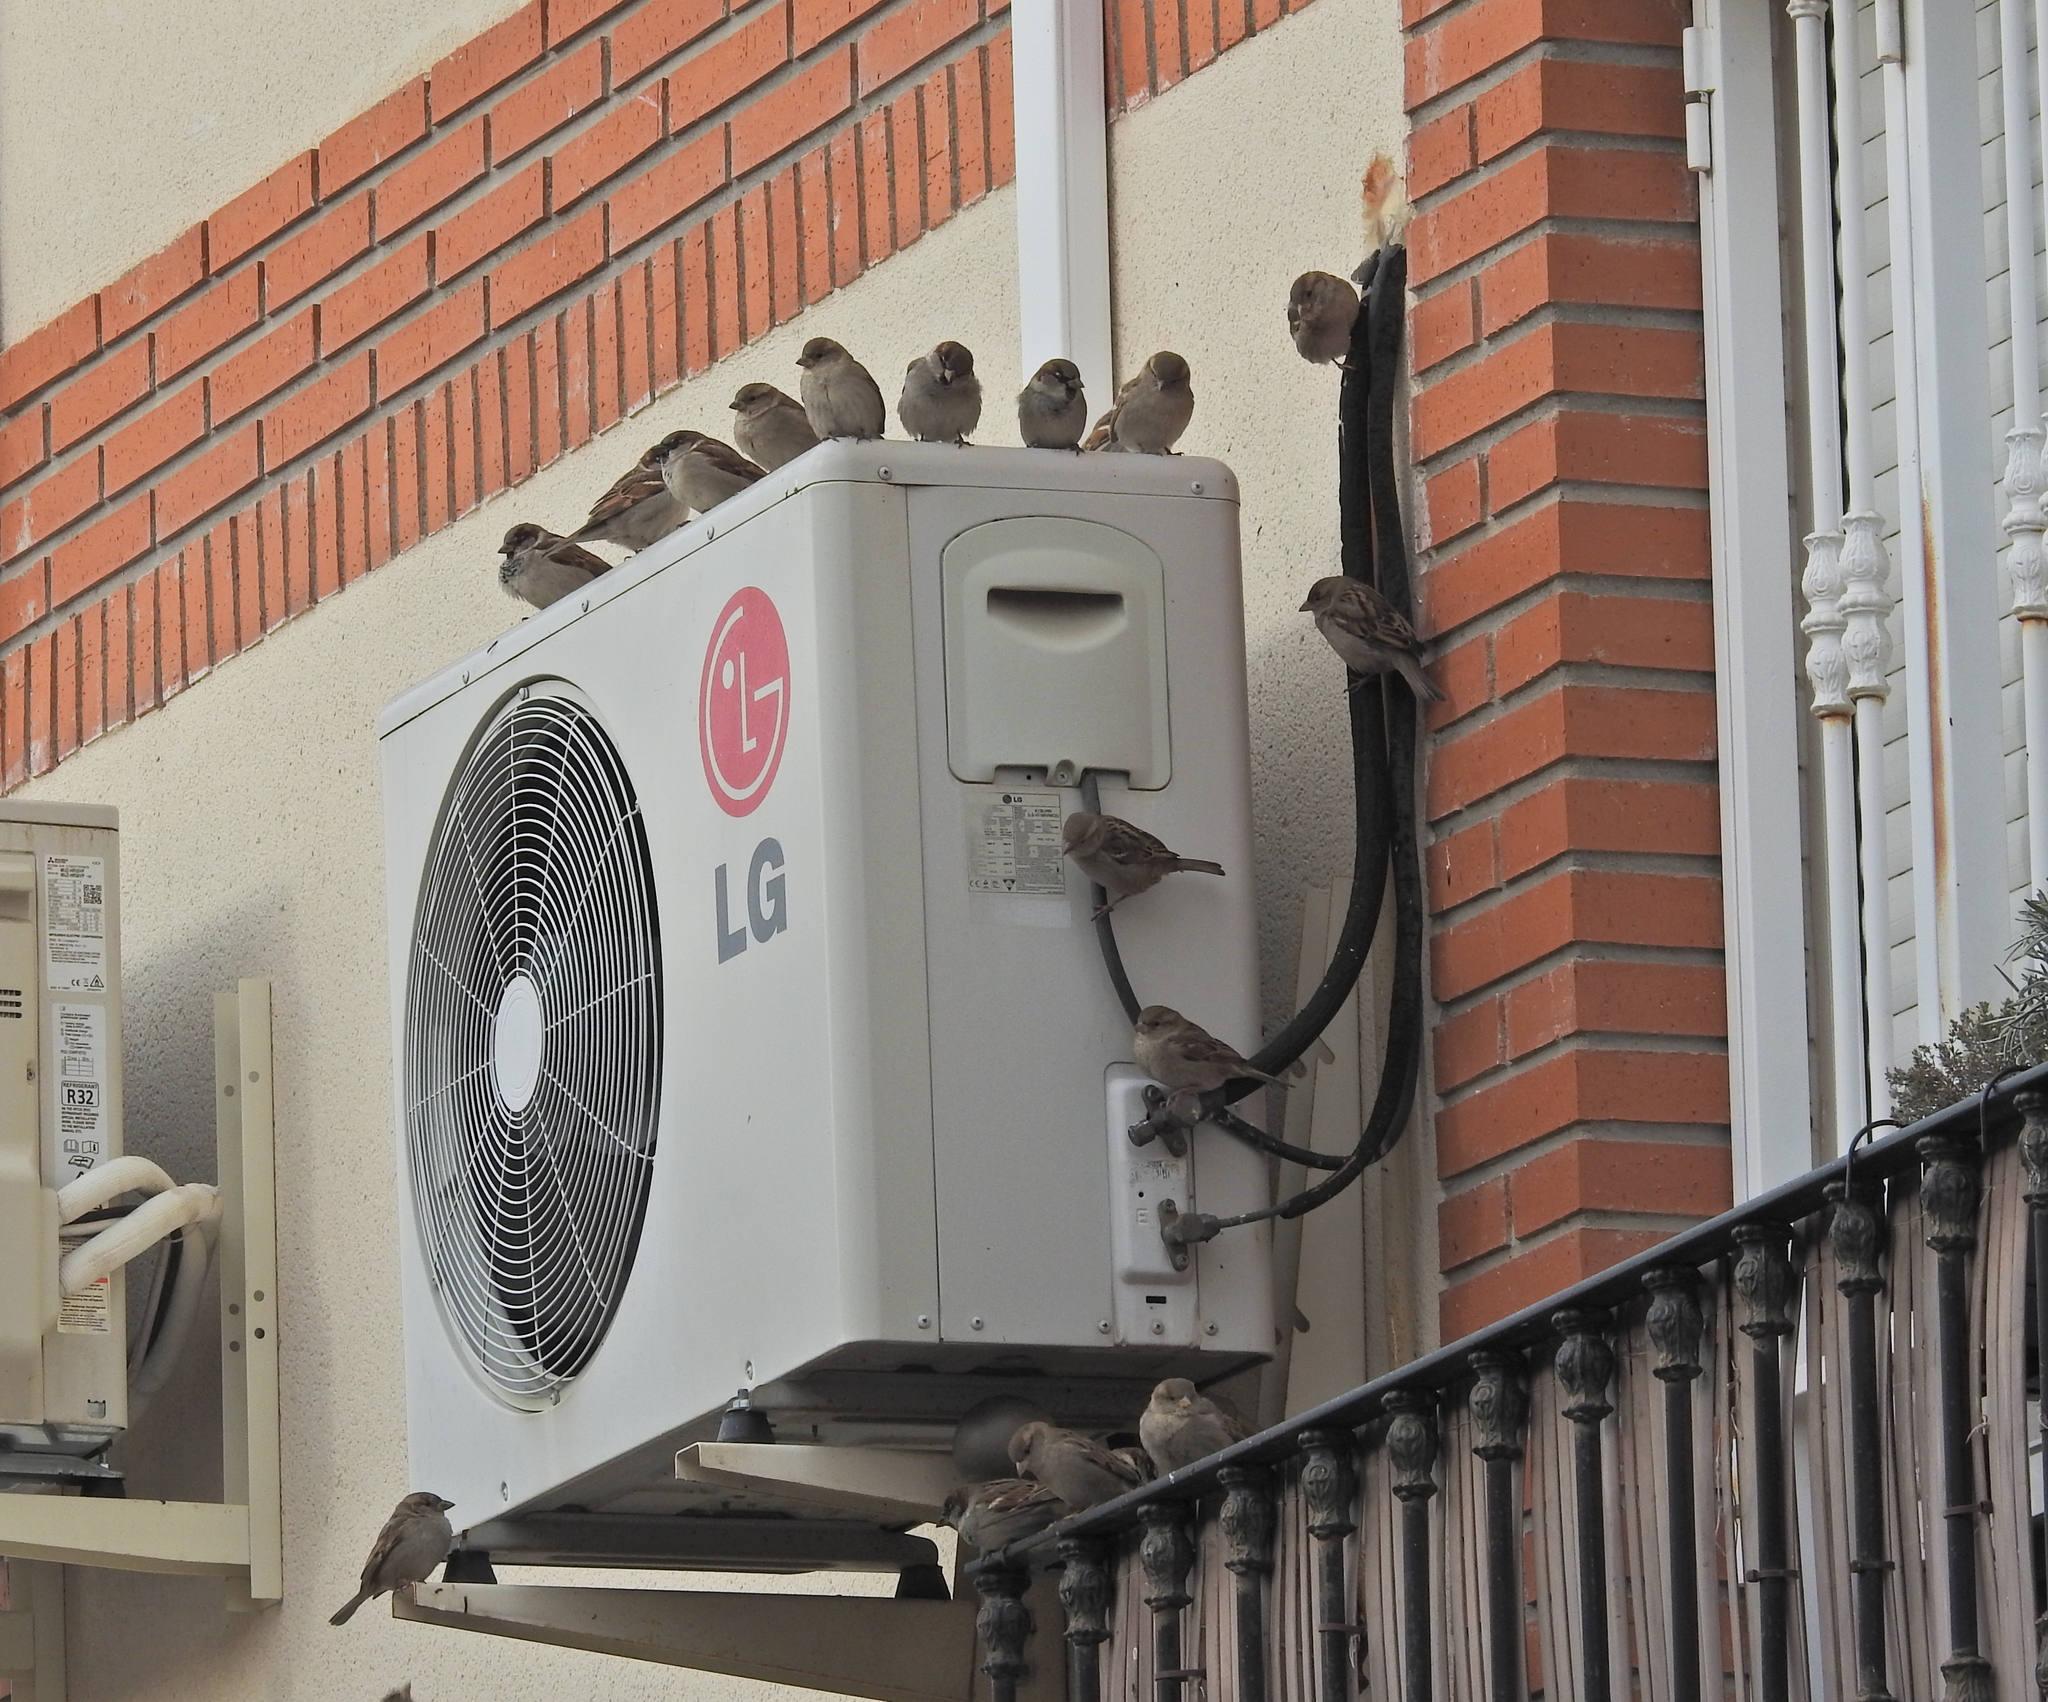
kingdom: Animalia
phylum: Chordata
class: Aves
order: Passeriformes
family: Passeridae
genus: Passer
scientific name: Passer domesticus
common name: House sparrow
